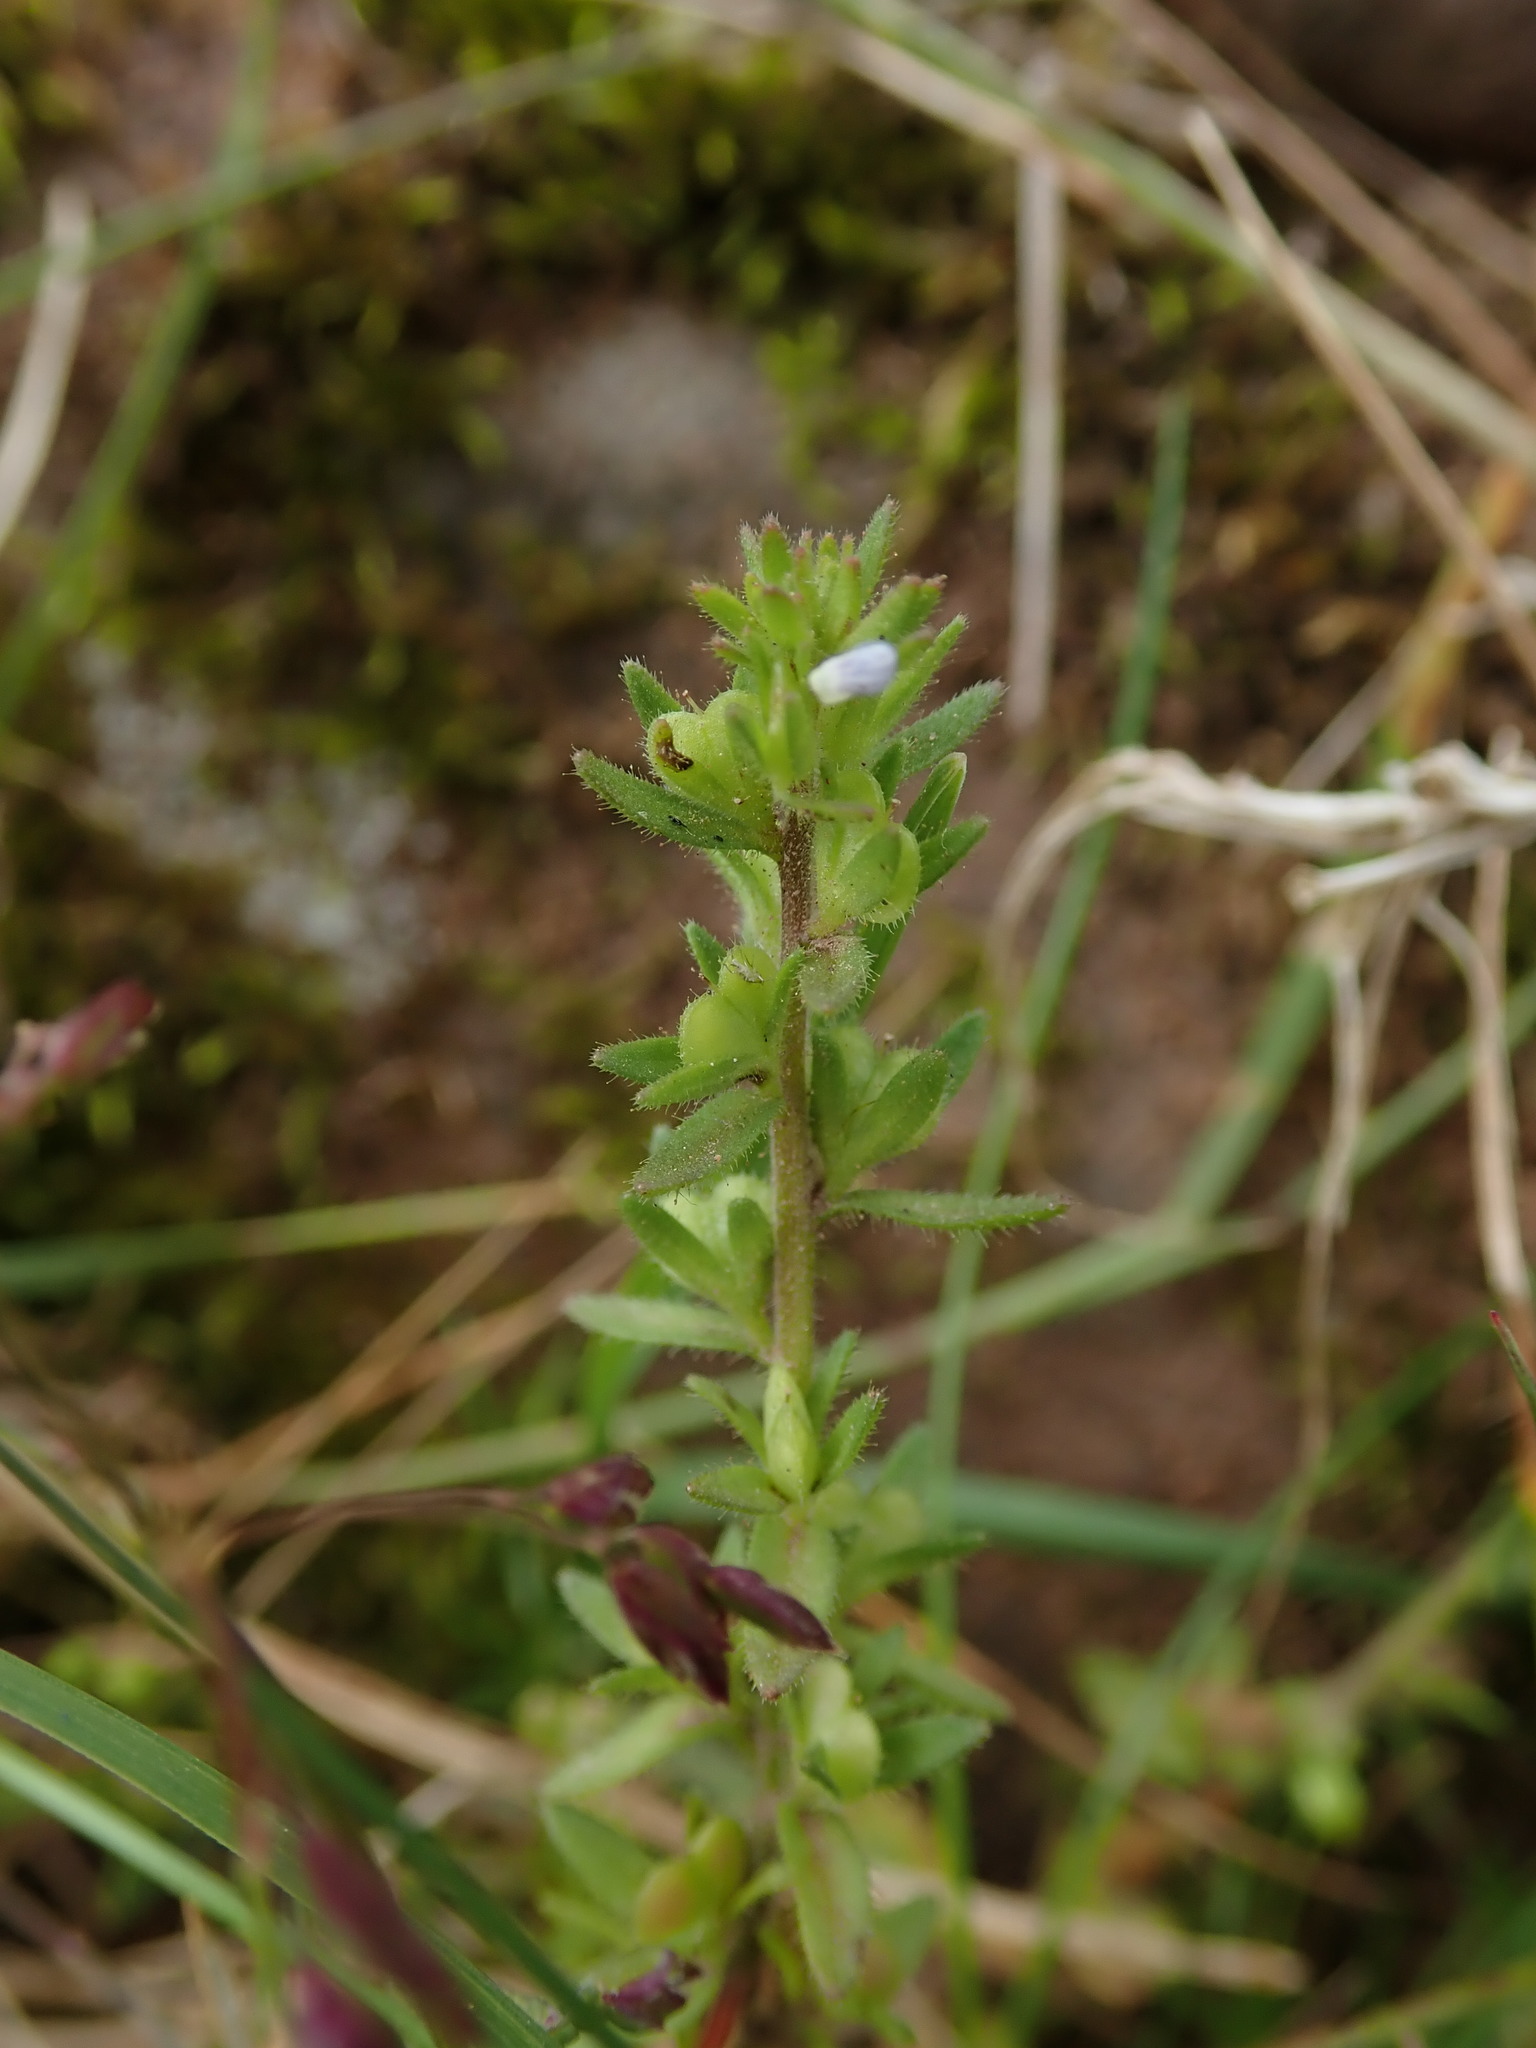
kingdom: Plantae
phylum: Tracheophyta
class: Magnoliopsida
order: Lamiales
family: Plantaginaceae
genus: Veronica
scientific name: Veronica arvensis
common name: Corn speedwell
